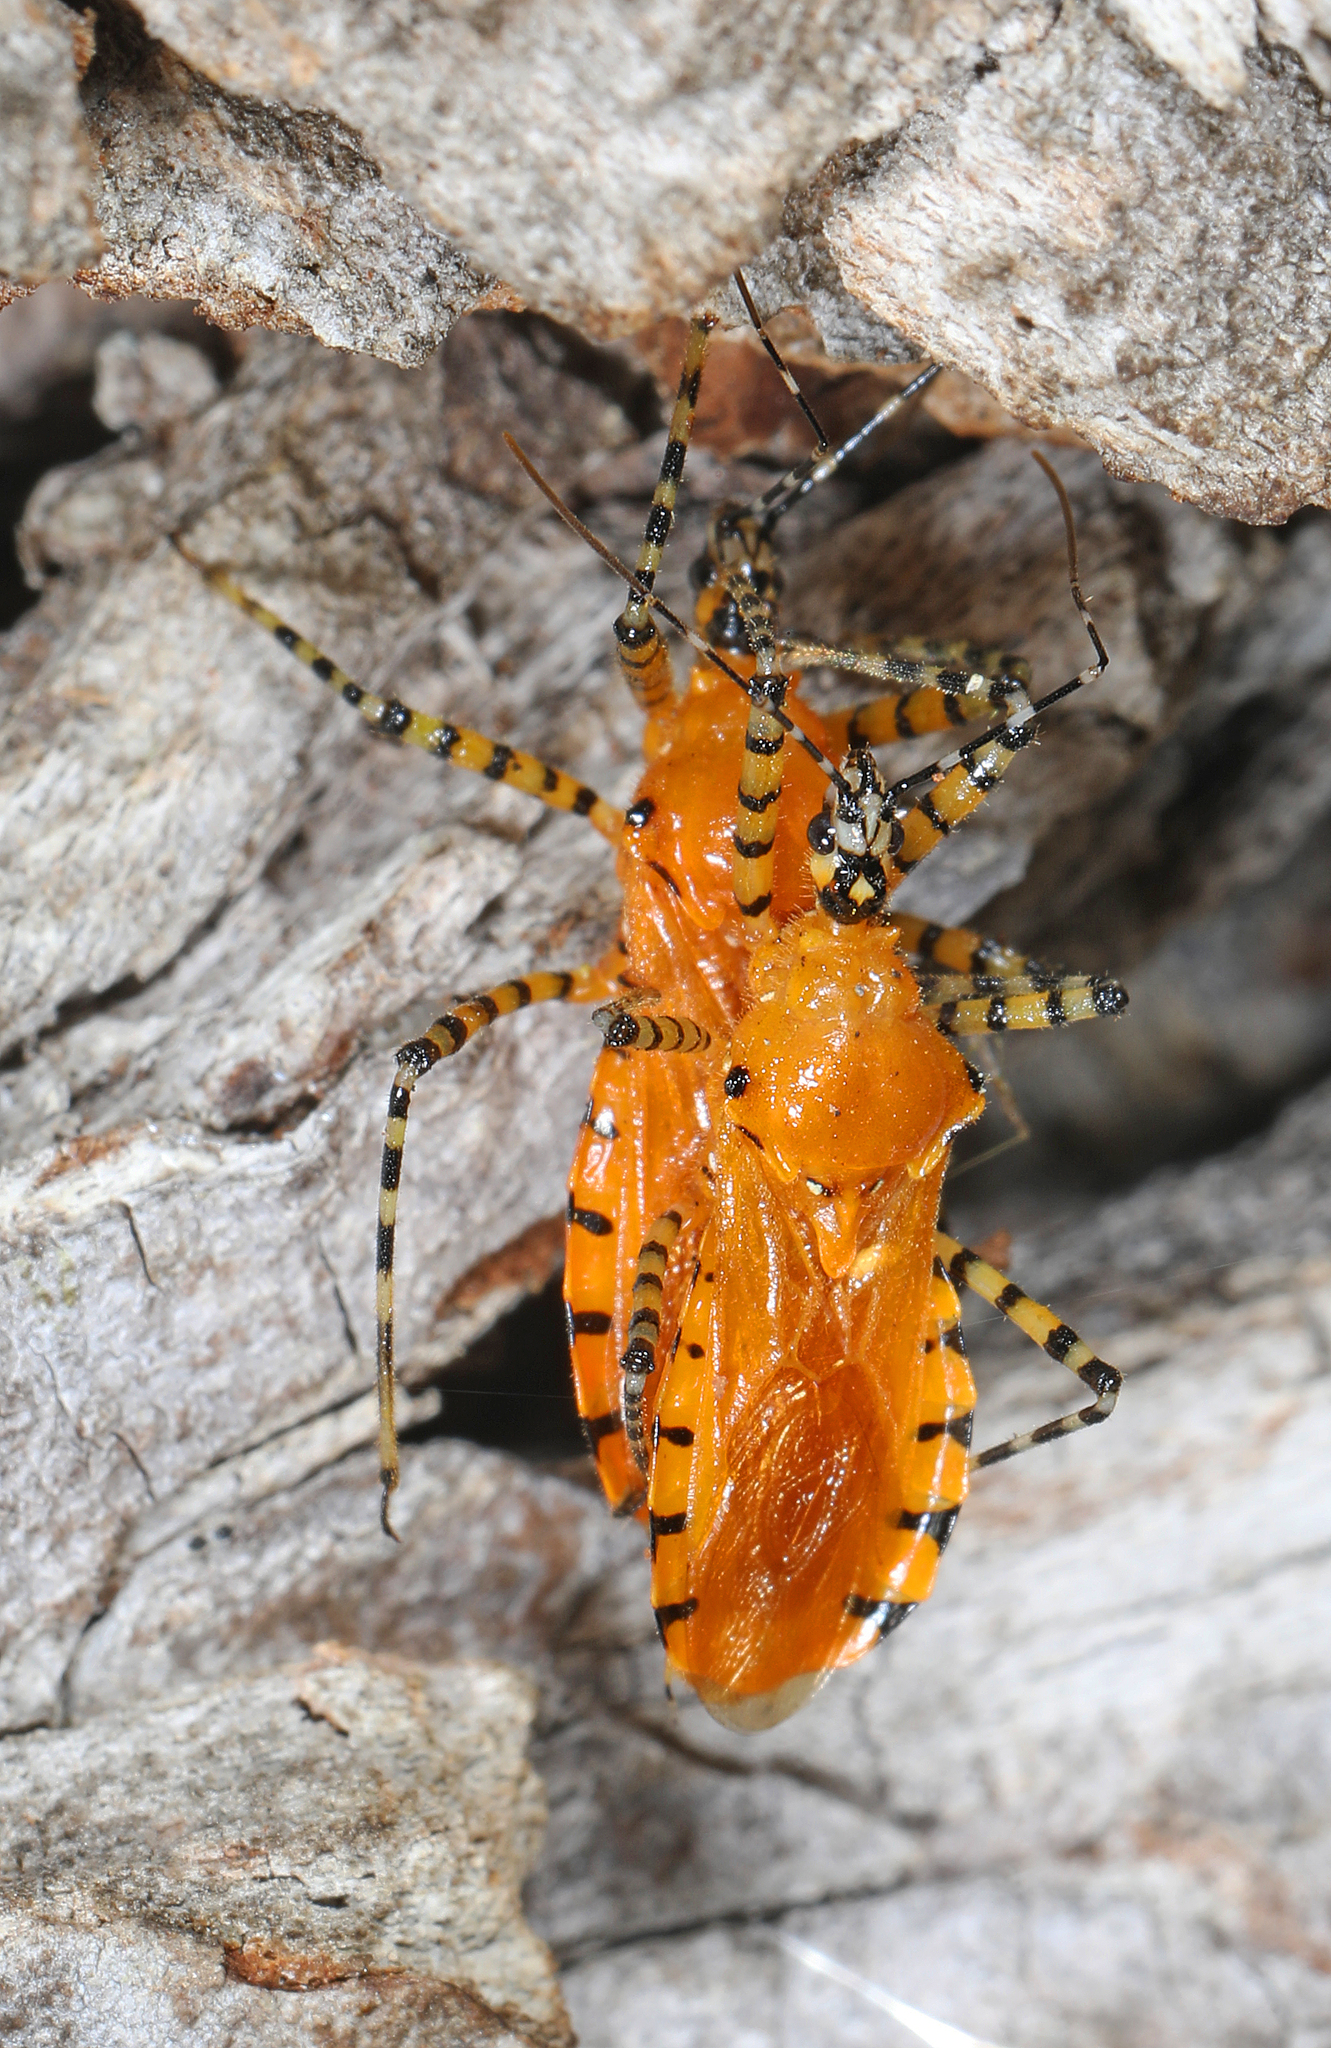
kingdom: Animalia
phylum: Arthropoda
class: Insecta
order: Hemiptera
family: Reduviidae
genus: Pselliopus
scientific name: Pselliopus barberi
